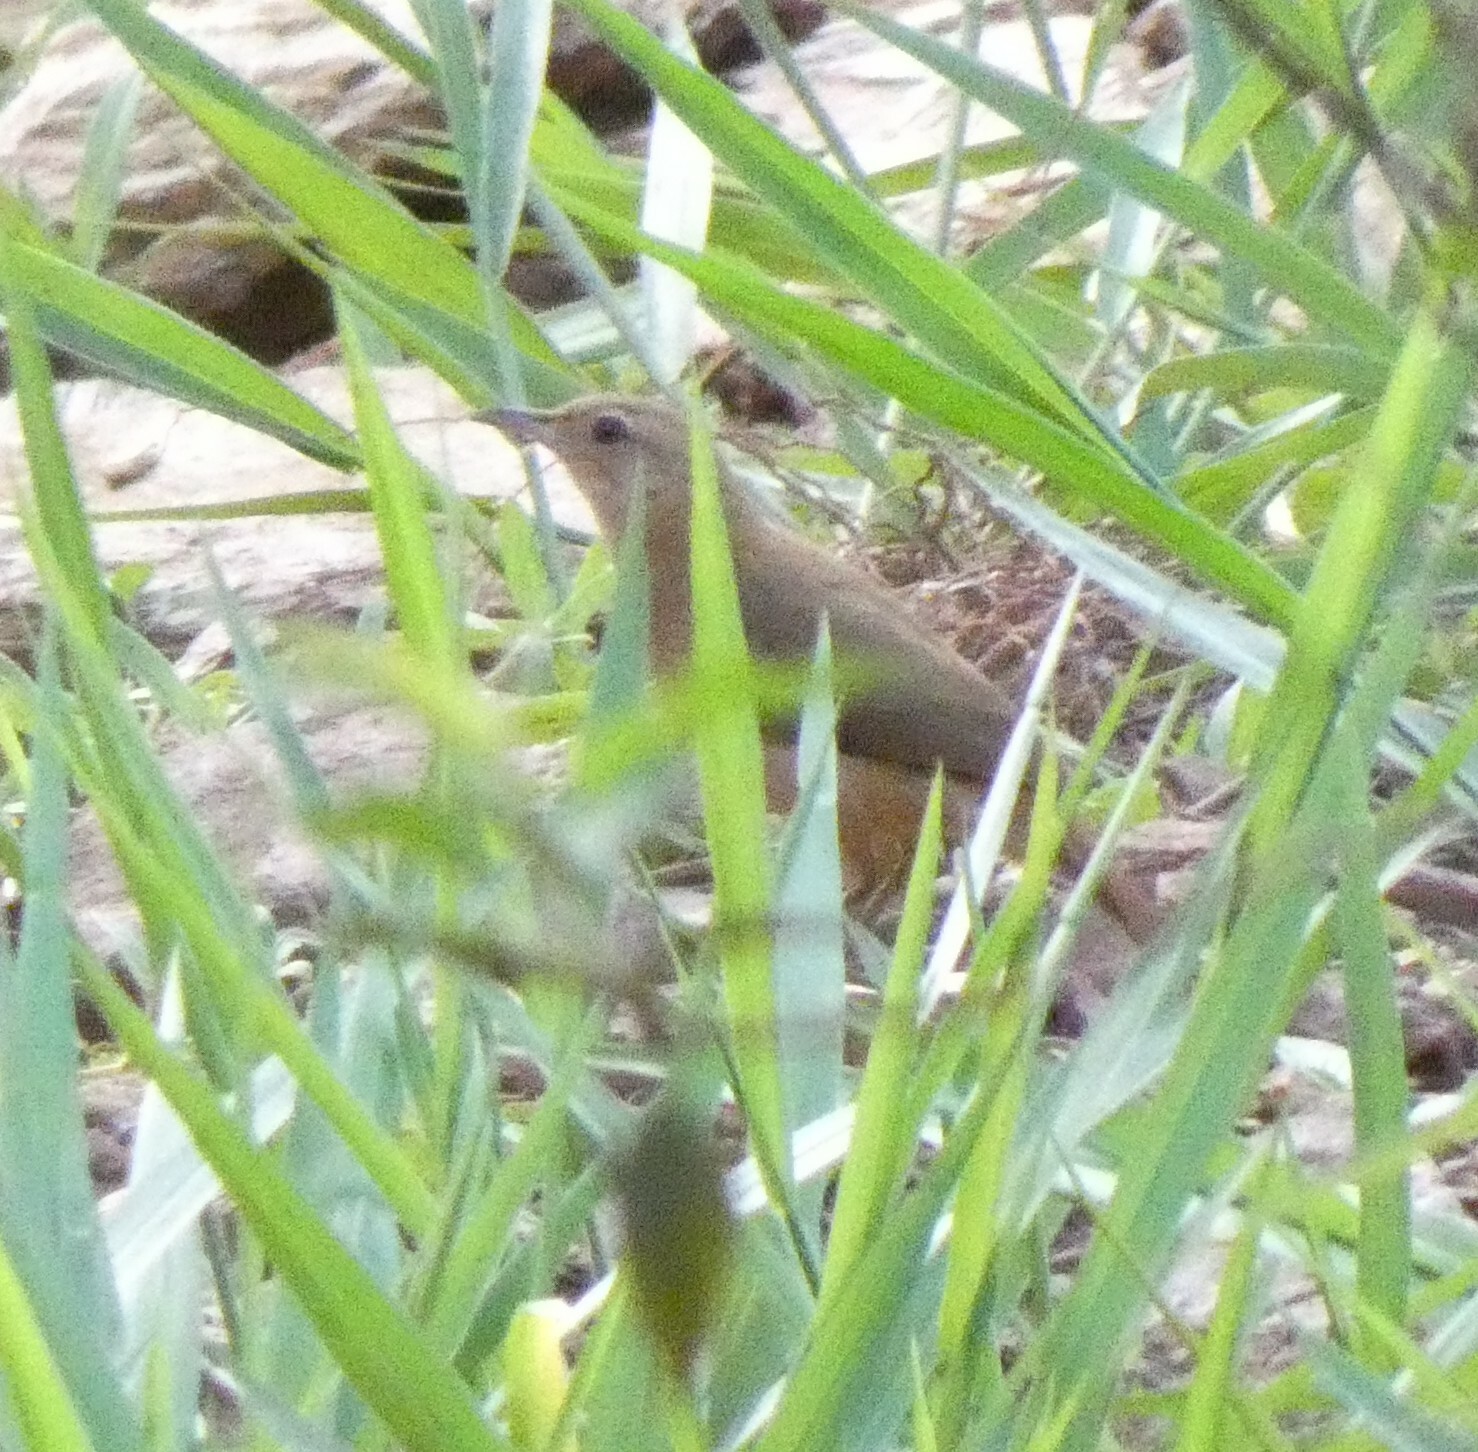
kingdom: Animalia
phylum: Chordata
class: Aves
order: Passeriformes
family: Furnariidae
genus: Furnarius
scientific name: Furnarius rufus
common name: Rufous hornero
